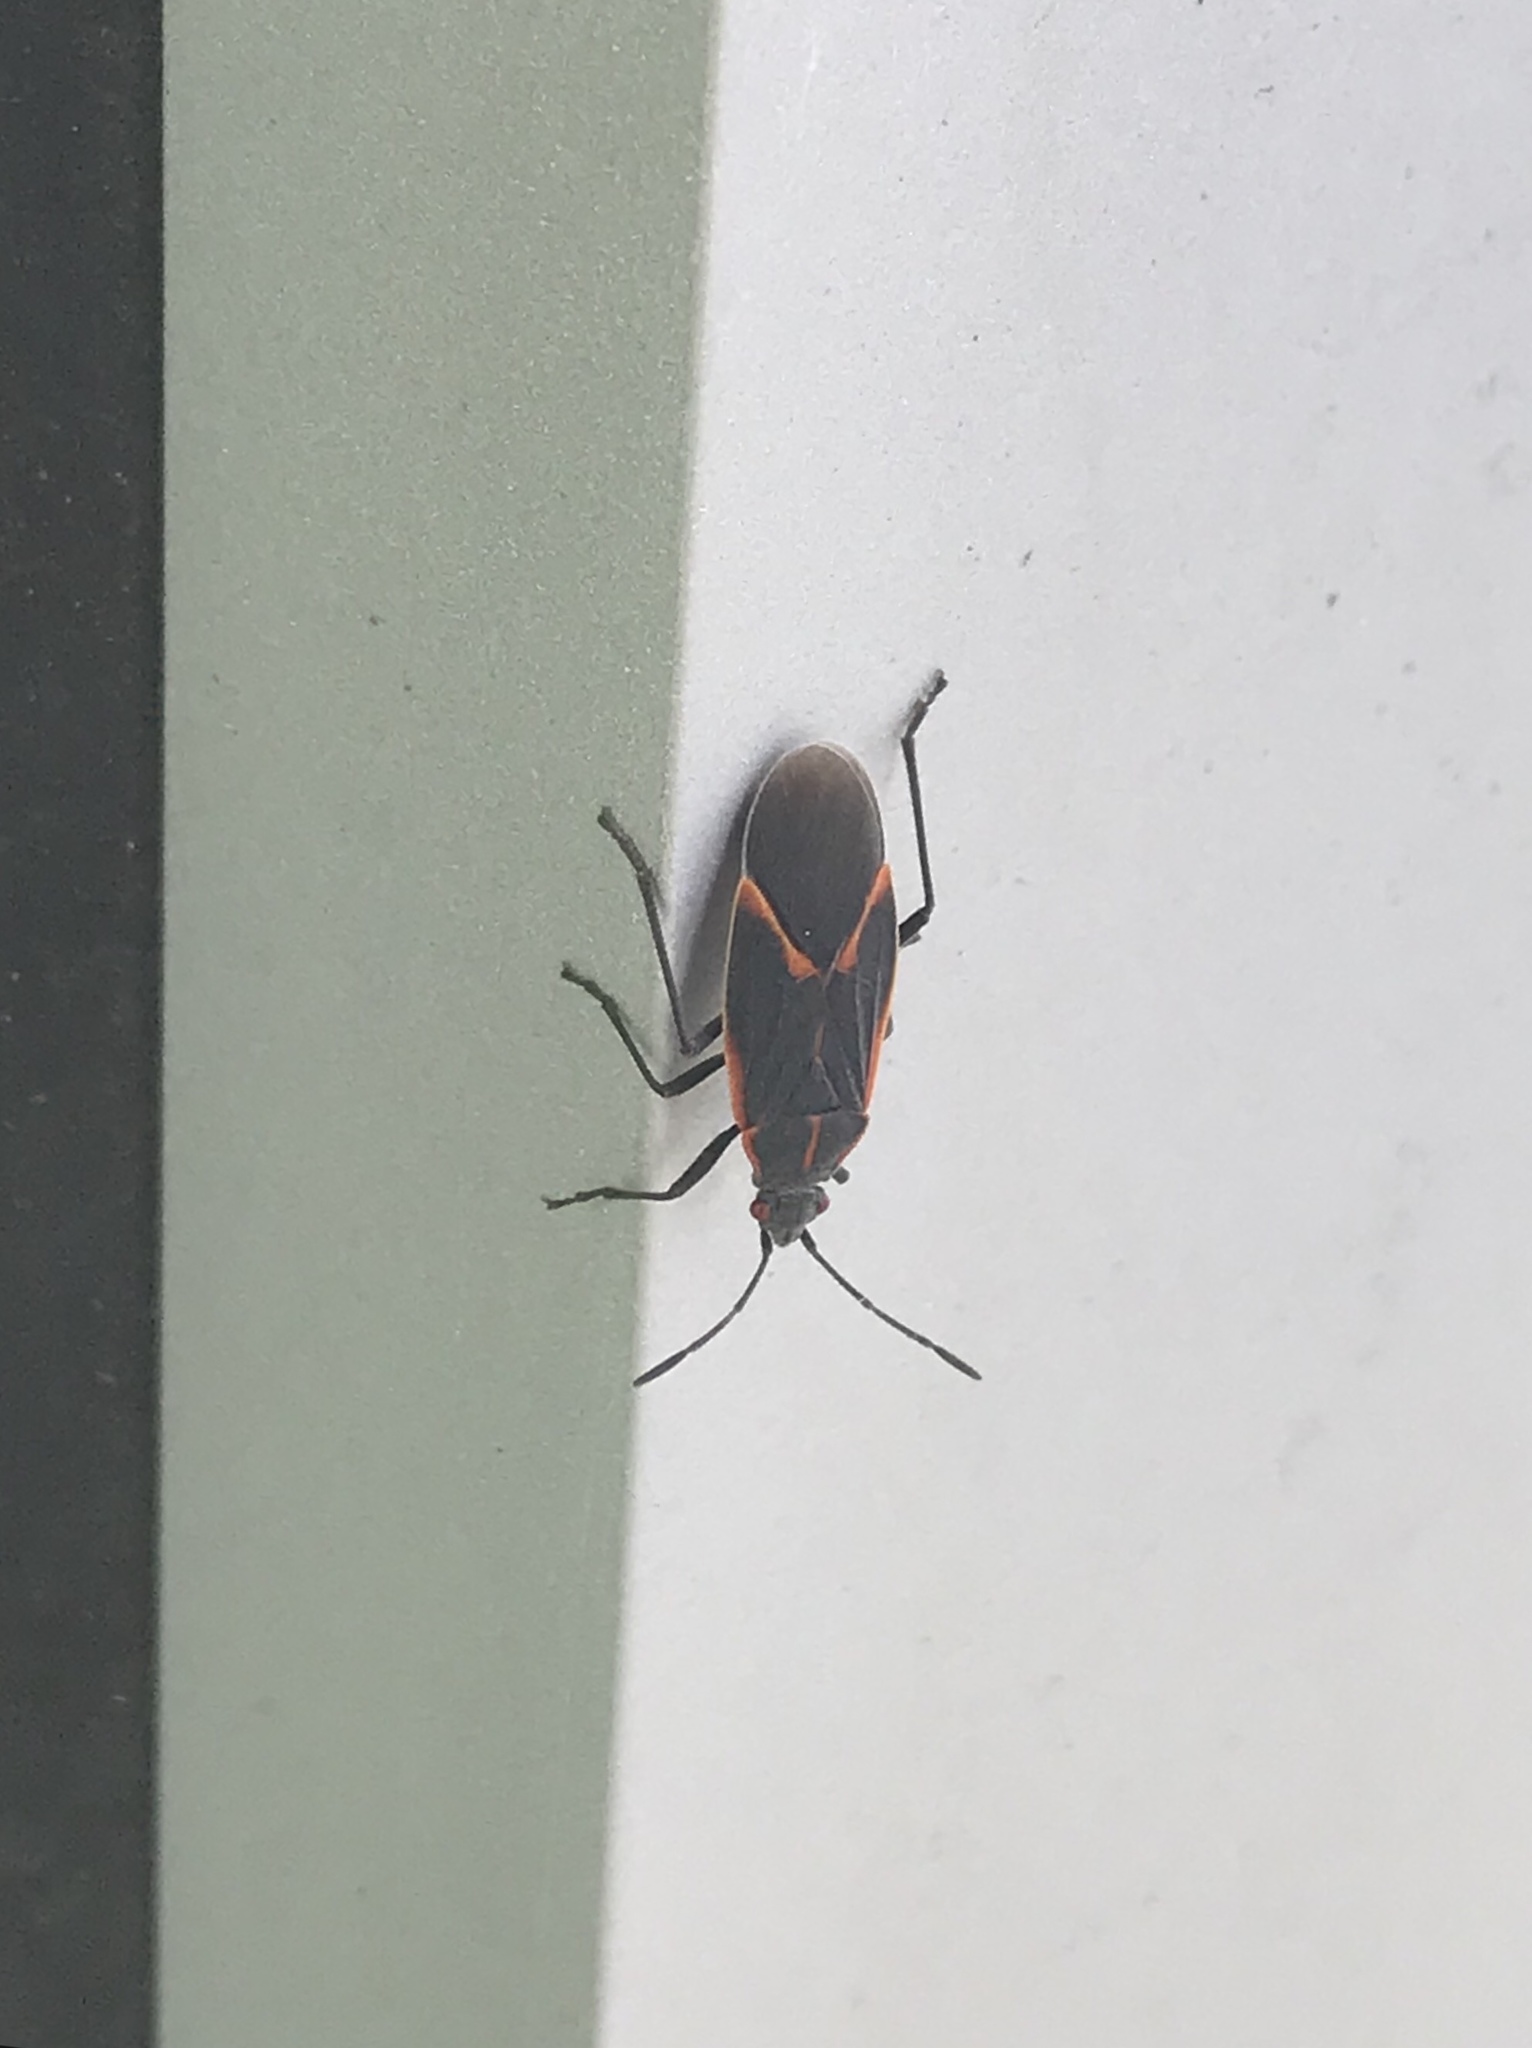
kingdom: Animalia
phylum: Arthropoda
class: Insecta
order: Hemiptera
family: Rhopalidae
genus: Boisea
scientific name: Boisea trivittata
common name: Boxelder bug
